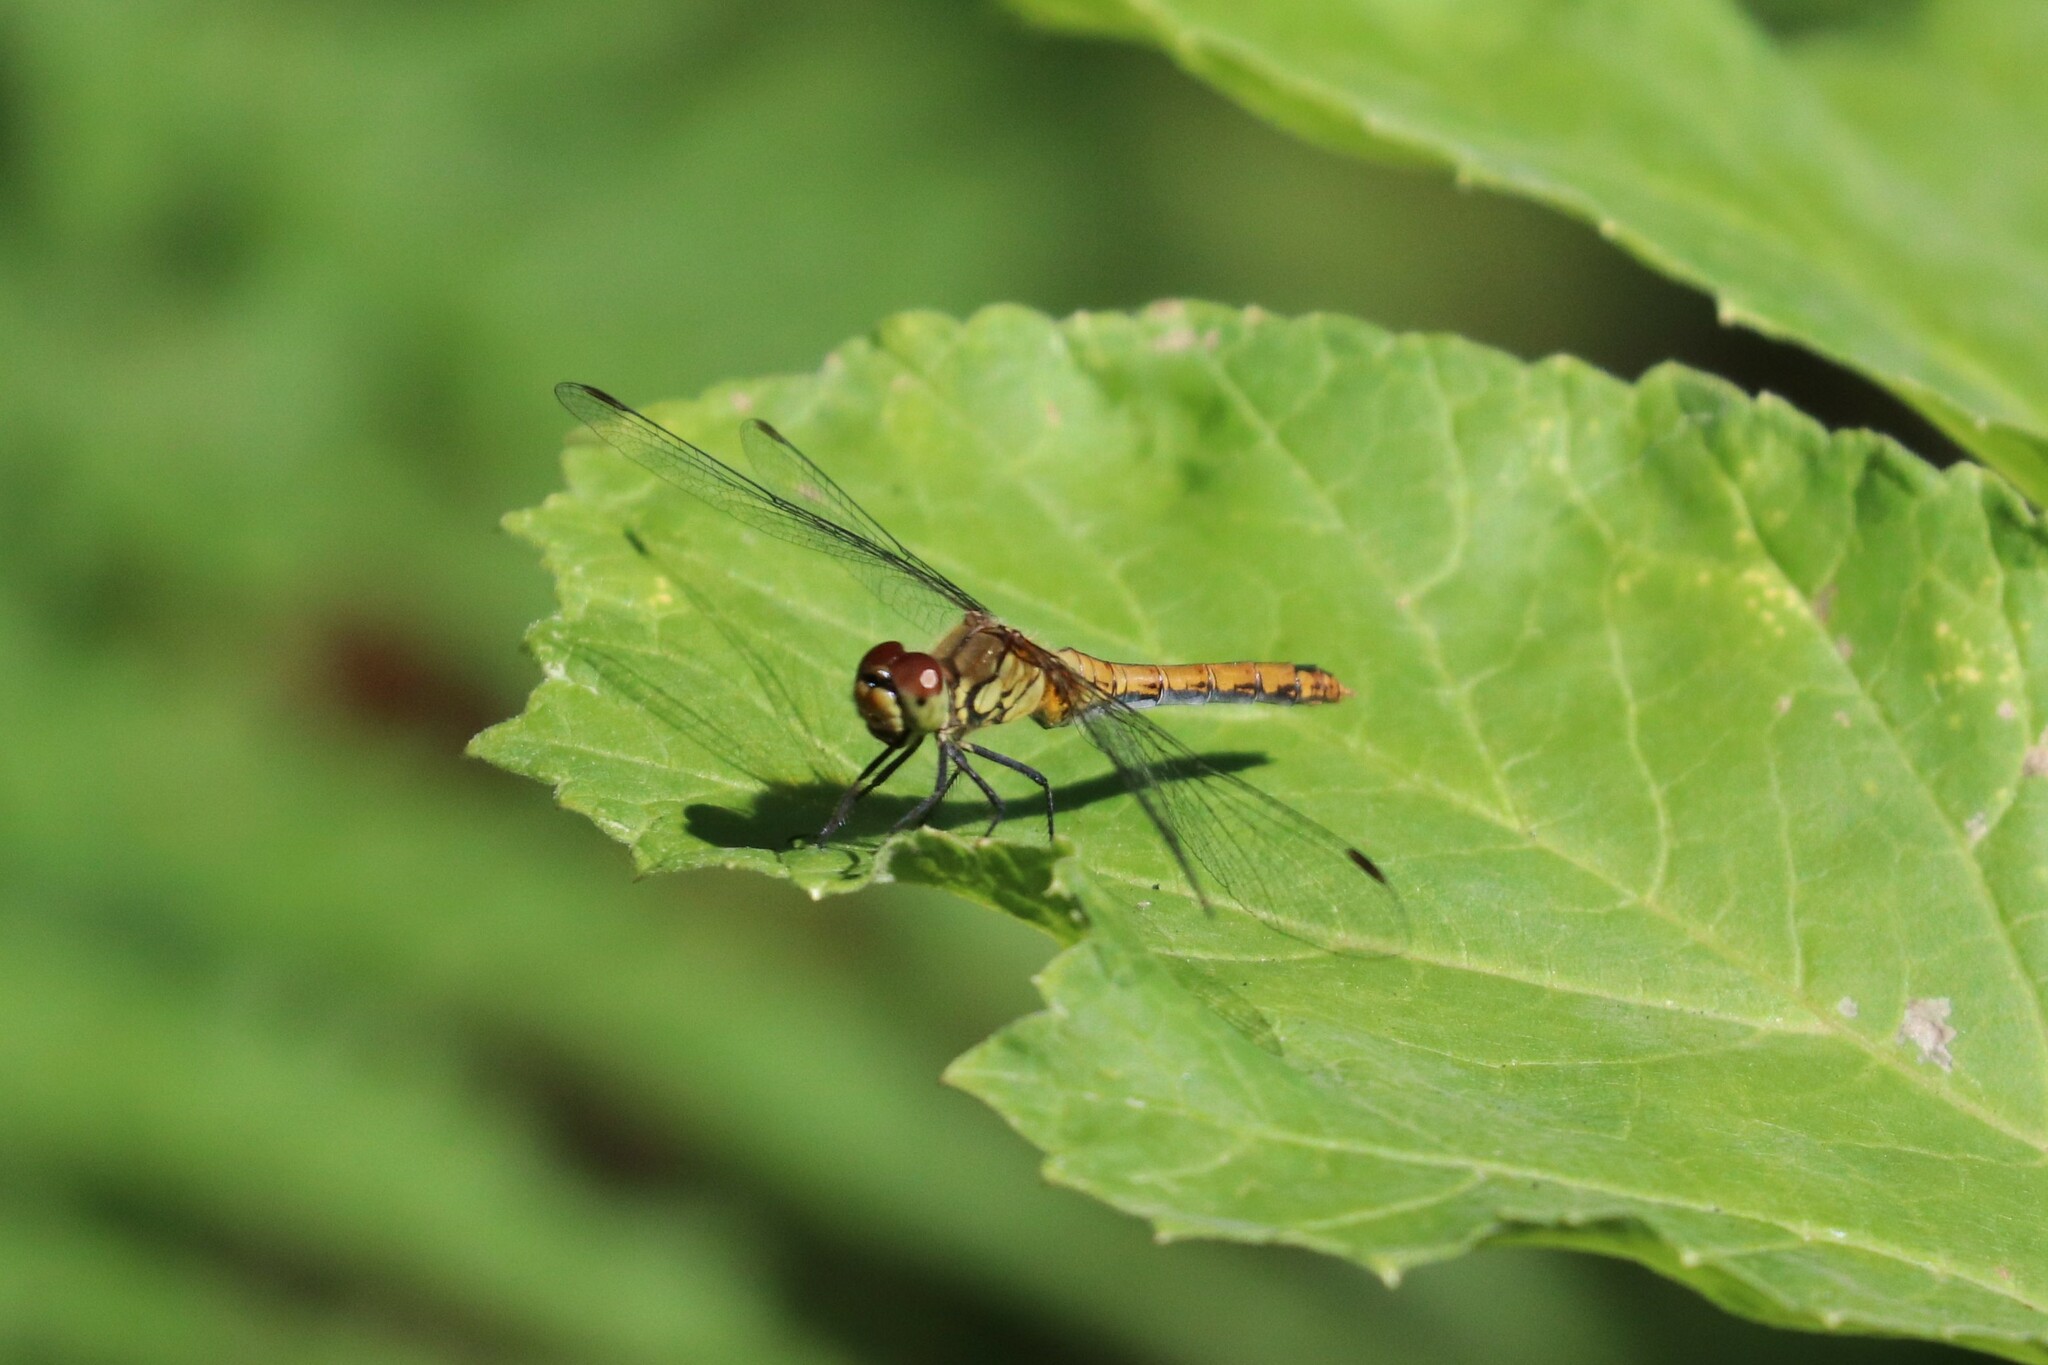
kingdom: Animalia
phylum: Arthropoda
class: Insecta
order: Odonata
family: Libellulidae
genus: Sympetrum
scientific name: Sympetrum sanguineum
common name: Ruddy darter
